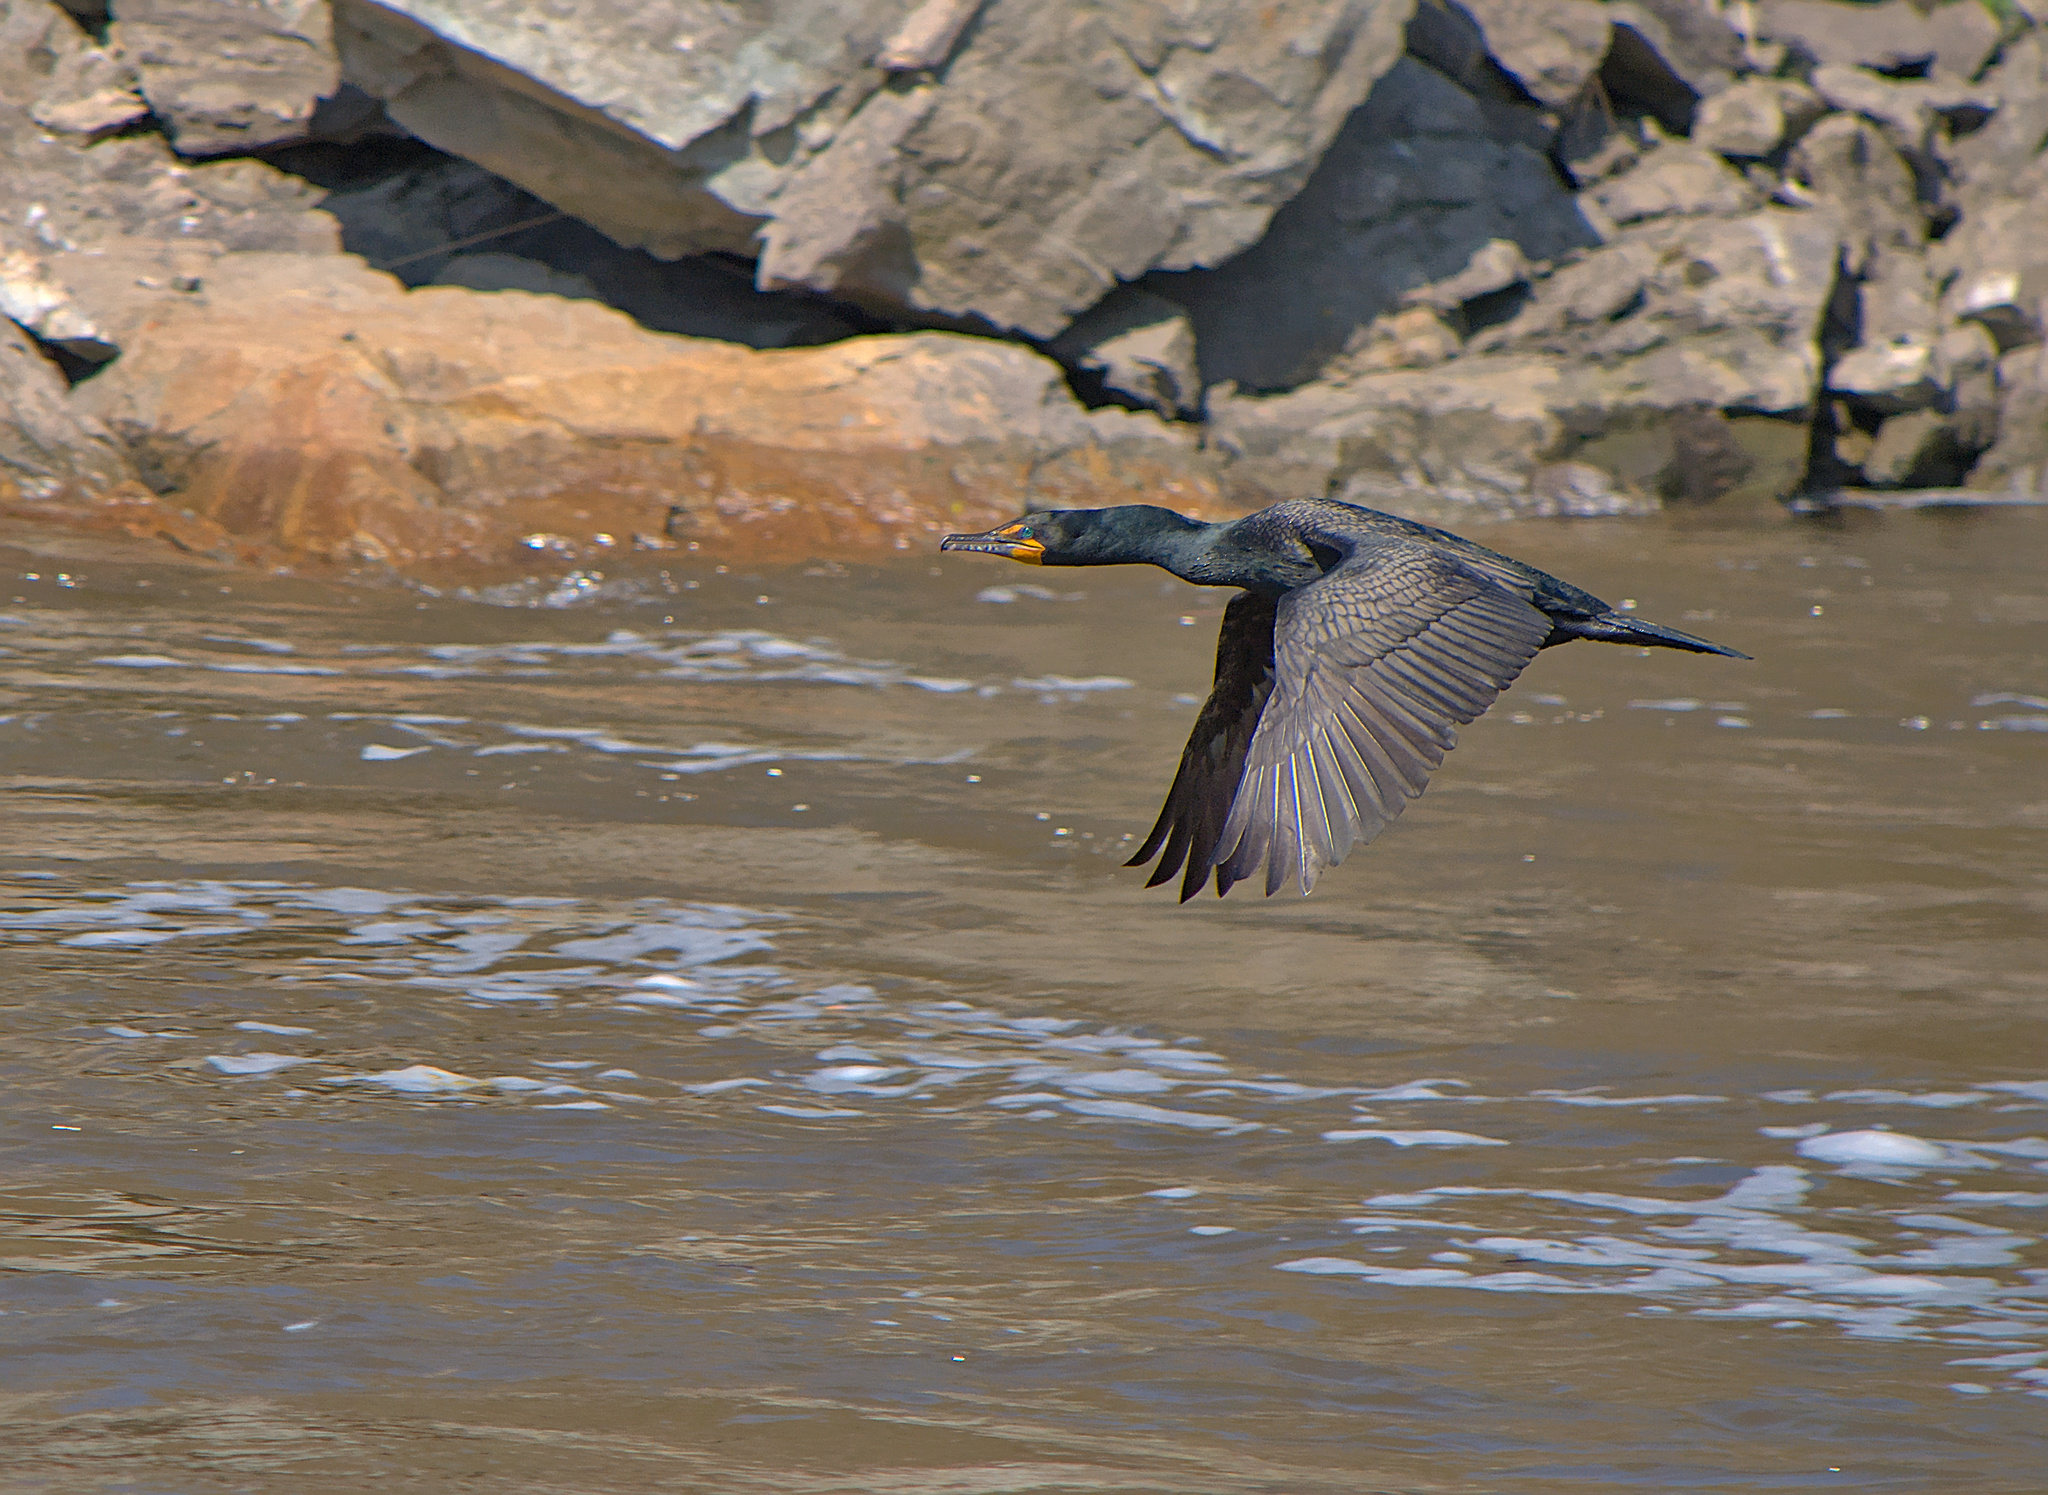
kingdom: Animalia
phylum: Chordata
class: Aves
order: Suliformes
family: Phalacrocoracidae
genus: Phalacrocorax
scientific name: Phalacrocorax auritus
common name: Double-crested cormorant
